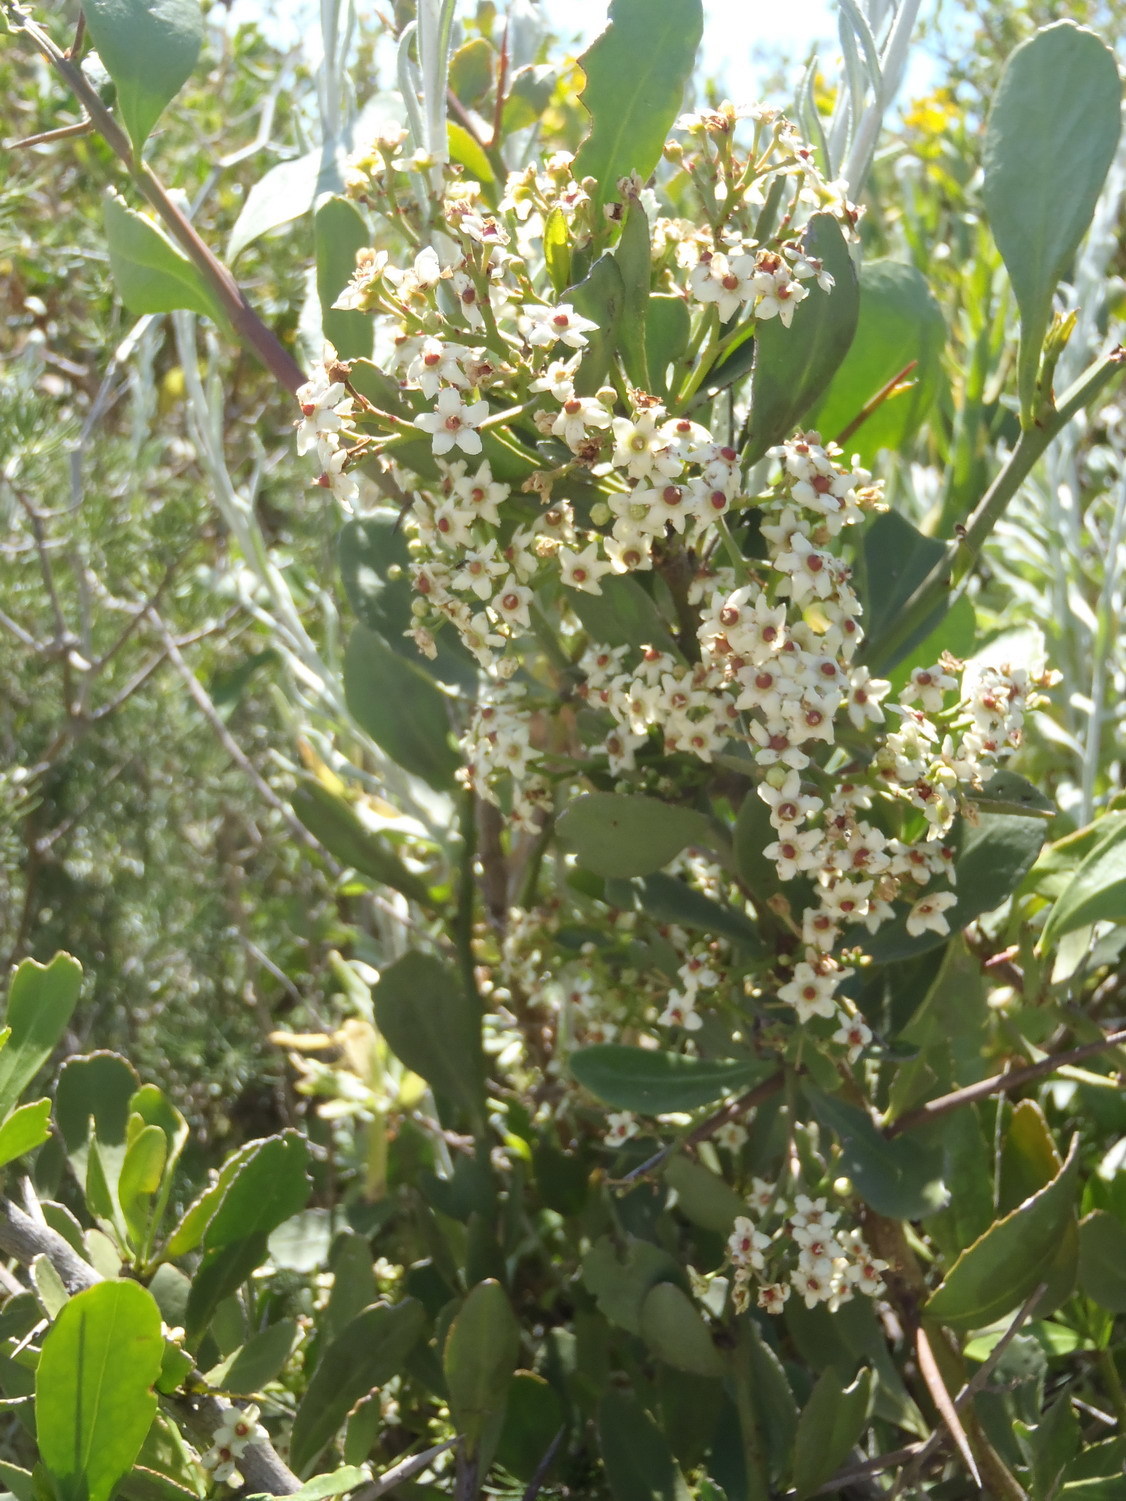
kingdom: Plantae
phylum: Tracheophyta
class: Magnoliopsida
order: Celastrales
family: Celastraceae
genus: Gymnosporia
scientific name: Gymnosporia buxifolia
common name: Common spike-thorn
